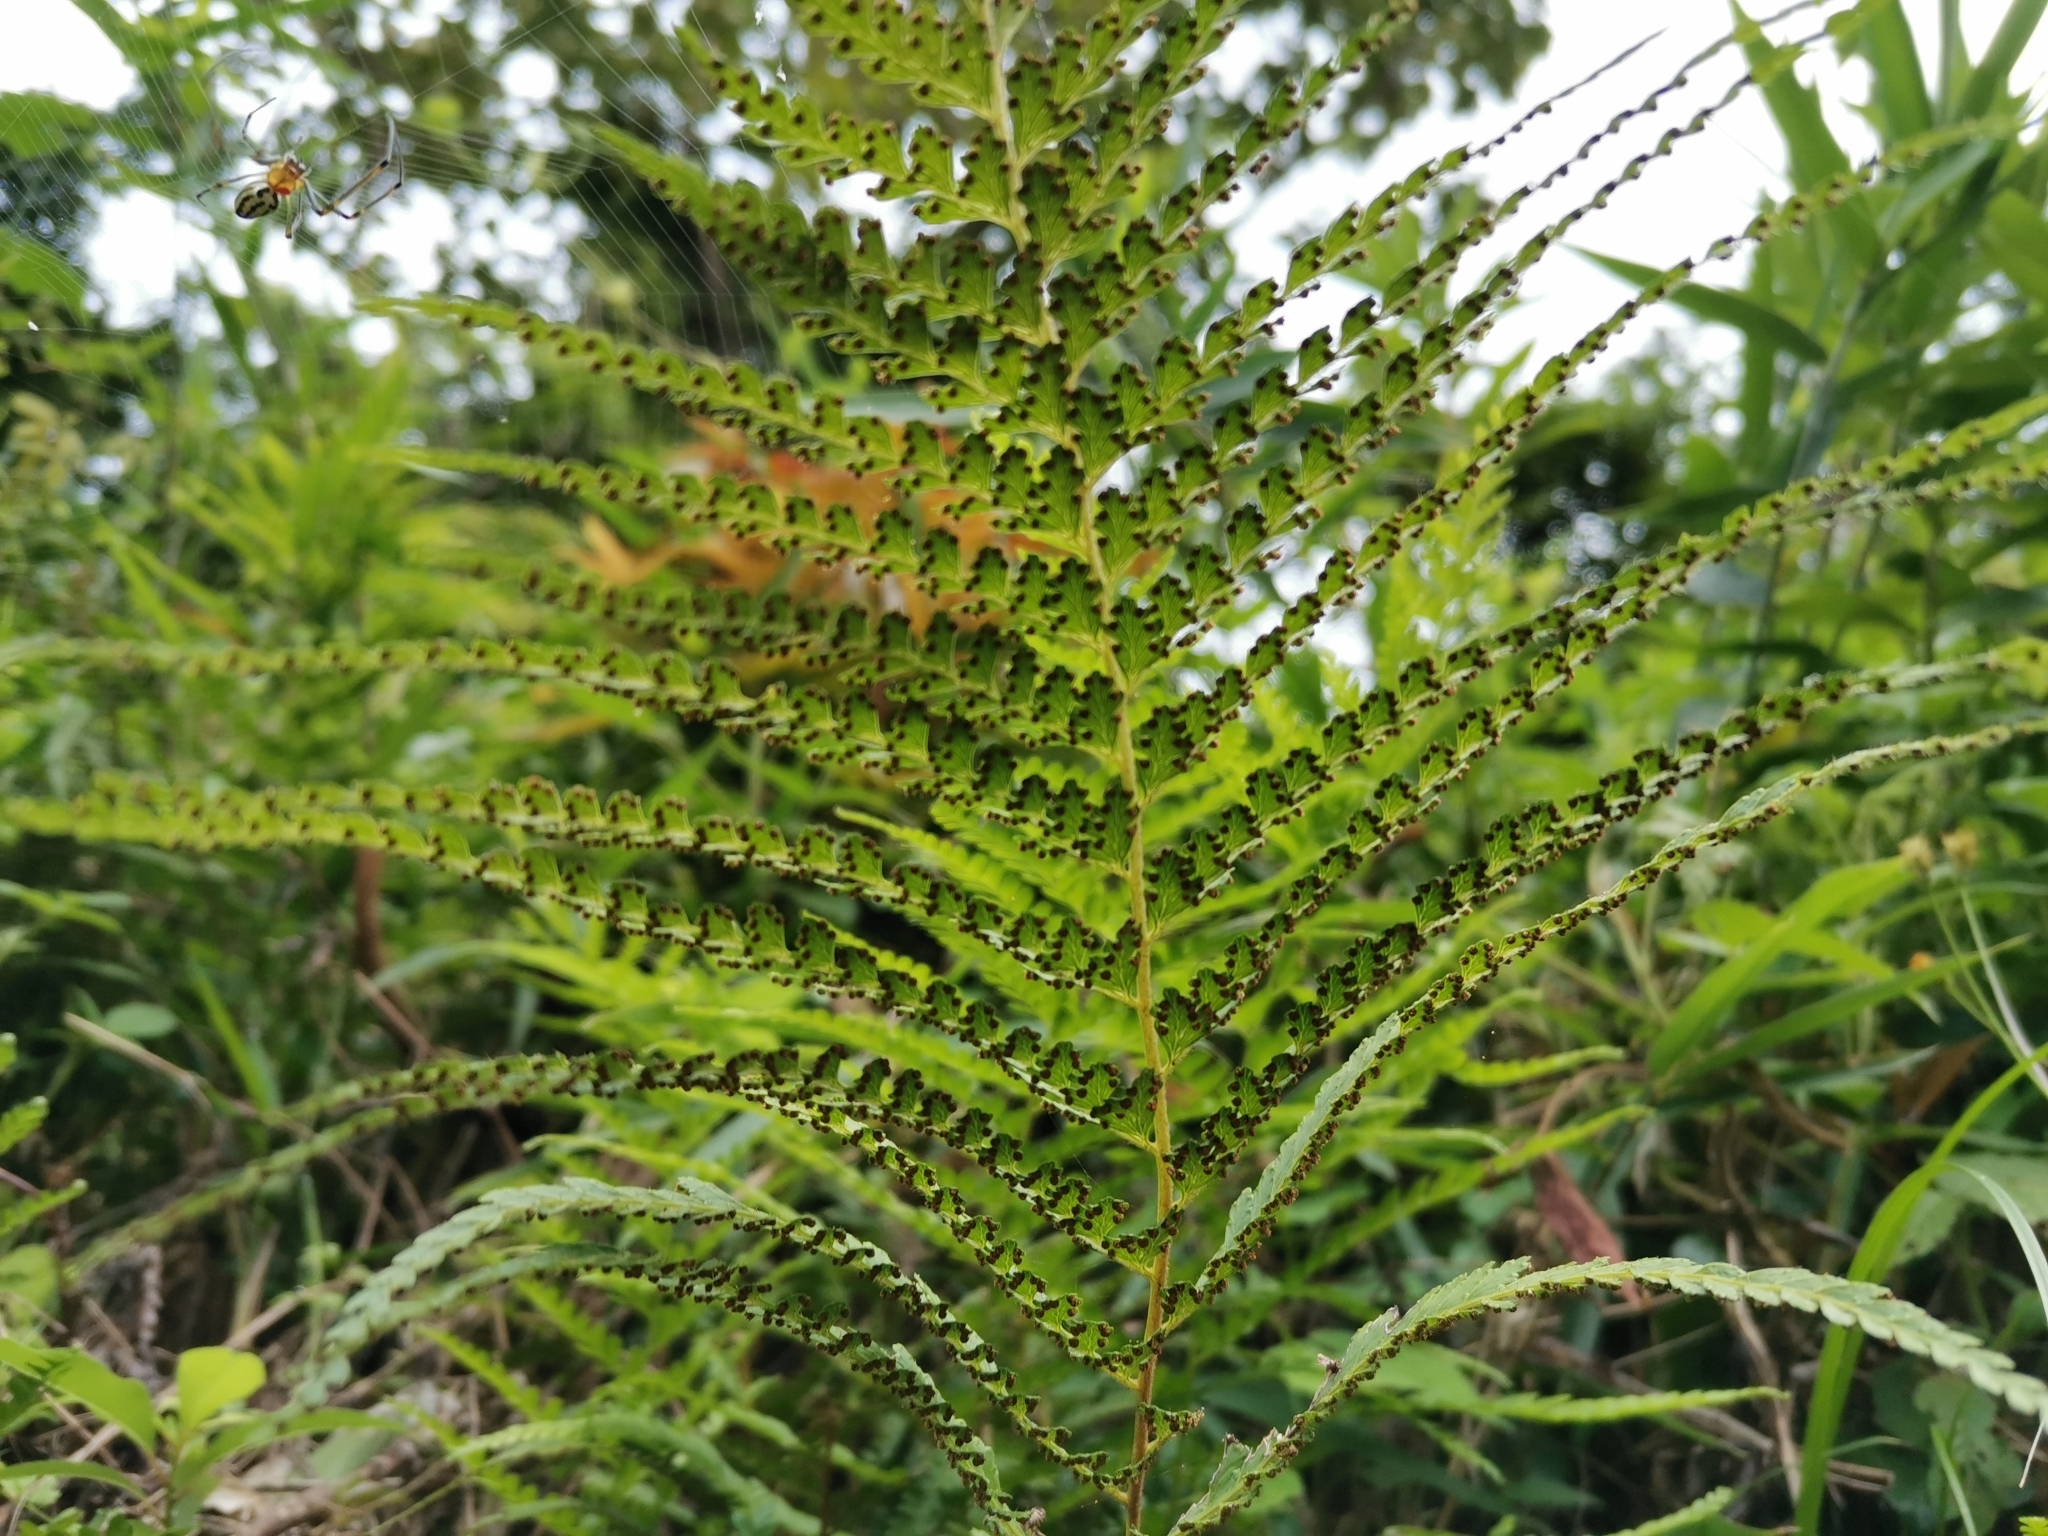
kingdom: Plantae
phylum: Tracheophyta
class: Polypodiopsida
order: Polypodiales
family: Dennstaedtiaceae
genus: Microlepia
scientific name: Microlepia strigosa
